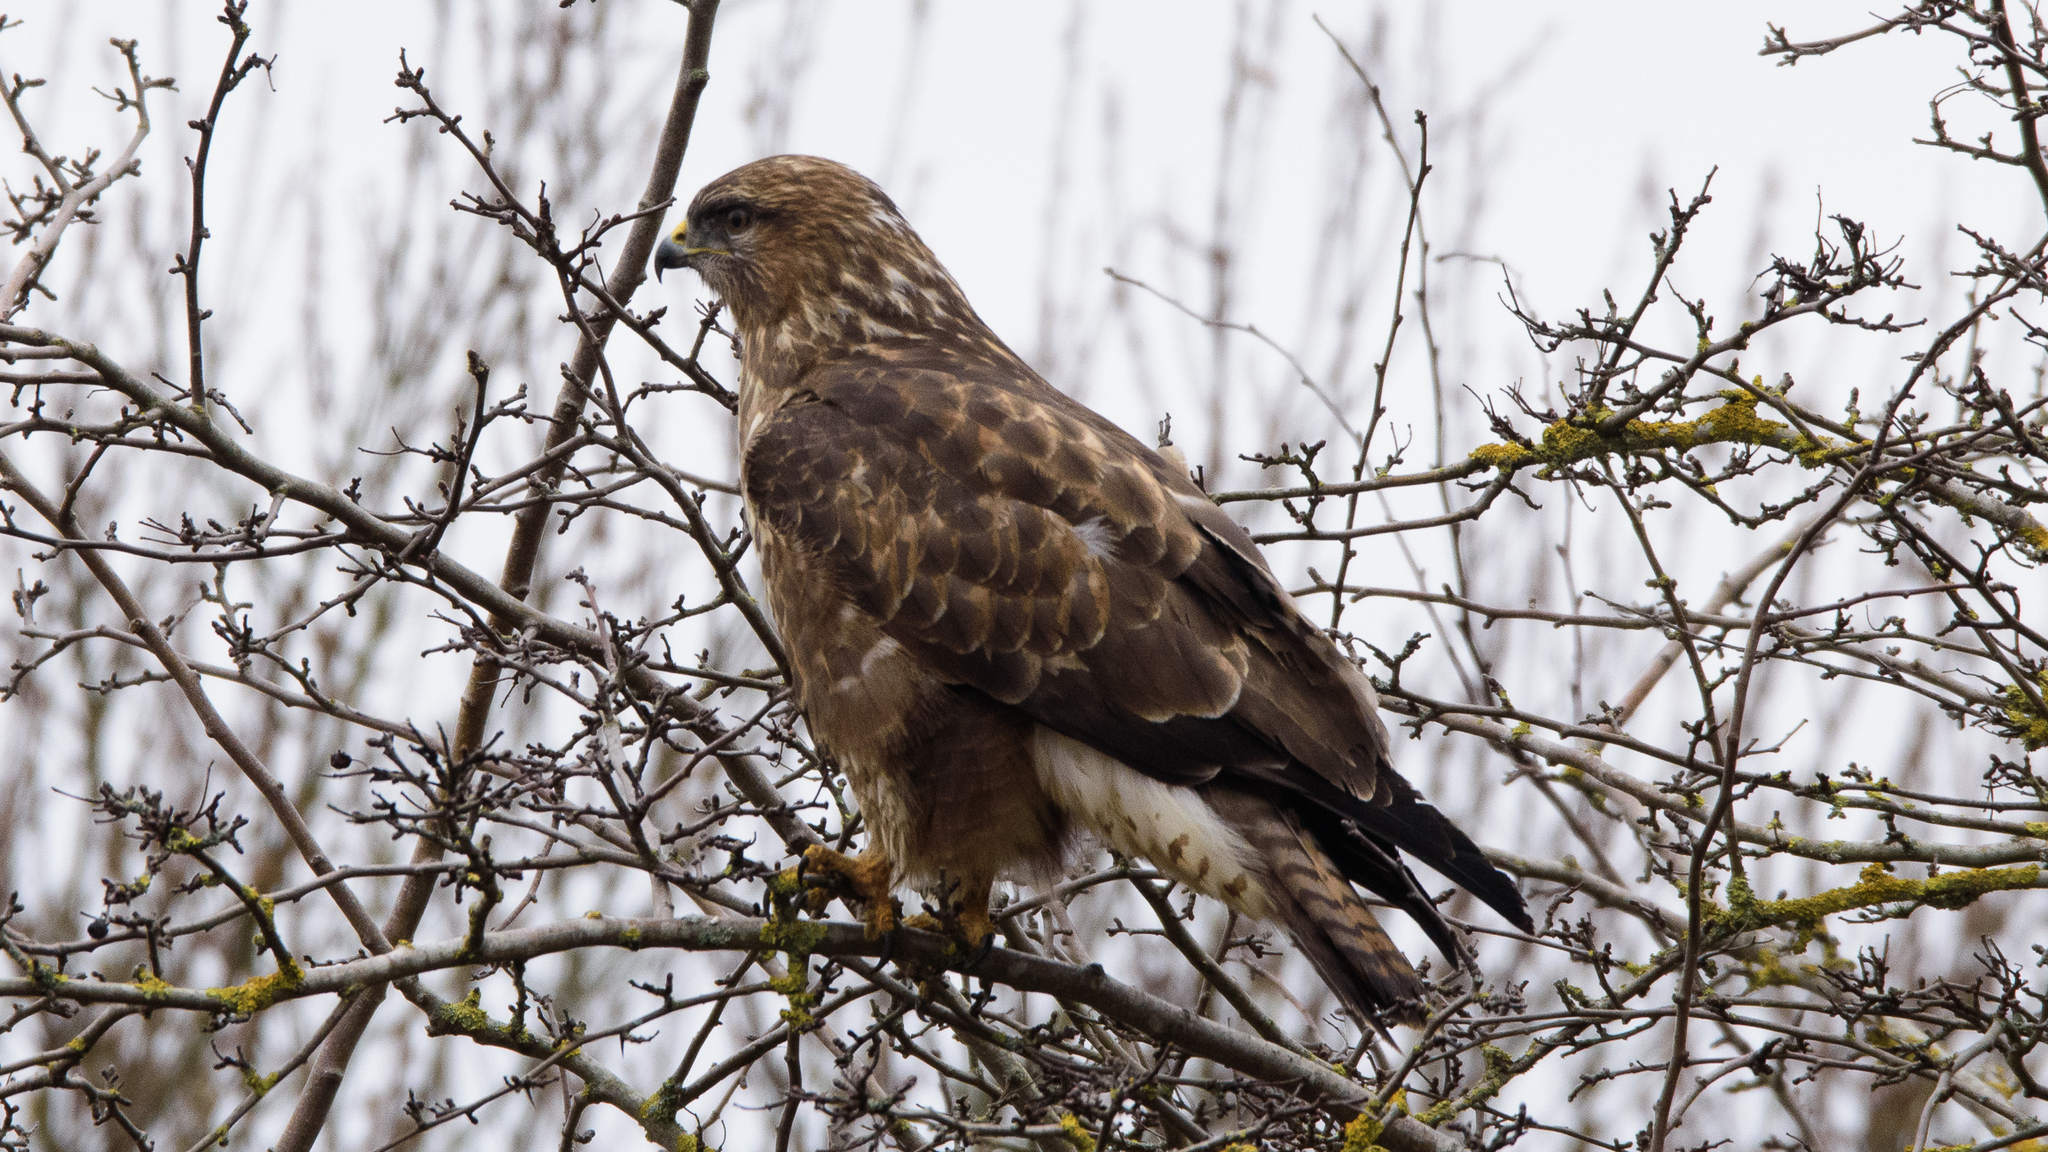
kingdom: Animalia
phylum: Chordata
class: Aves
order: Accipitriformes
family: Accipitridae
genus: Buteo
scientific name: Buteo buteo
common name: Common buzzard
